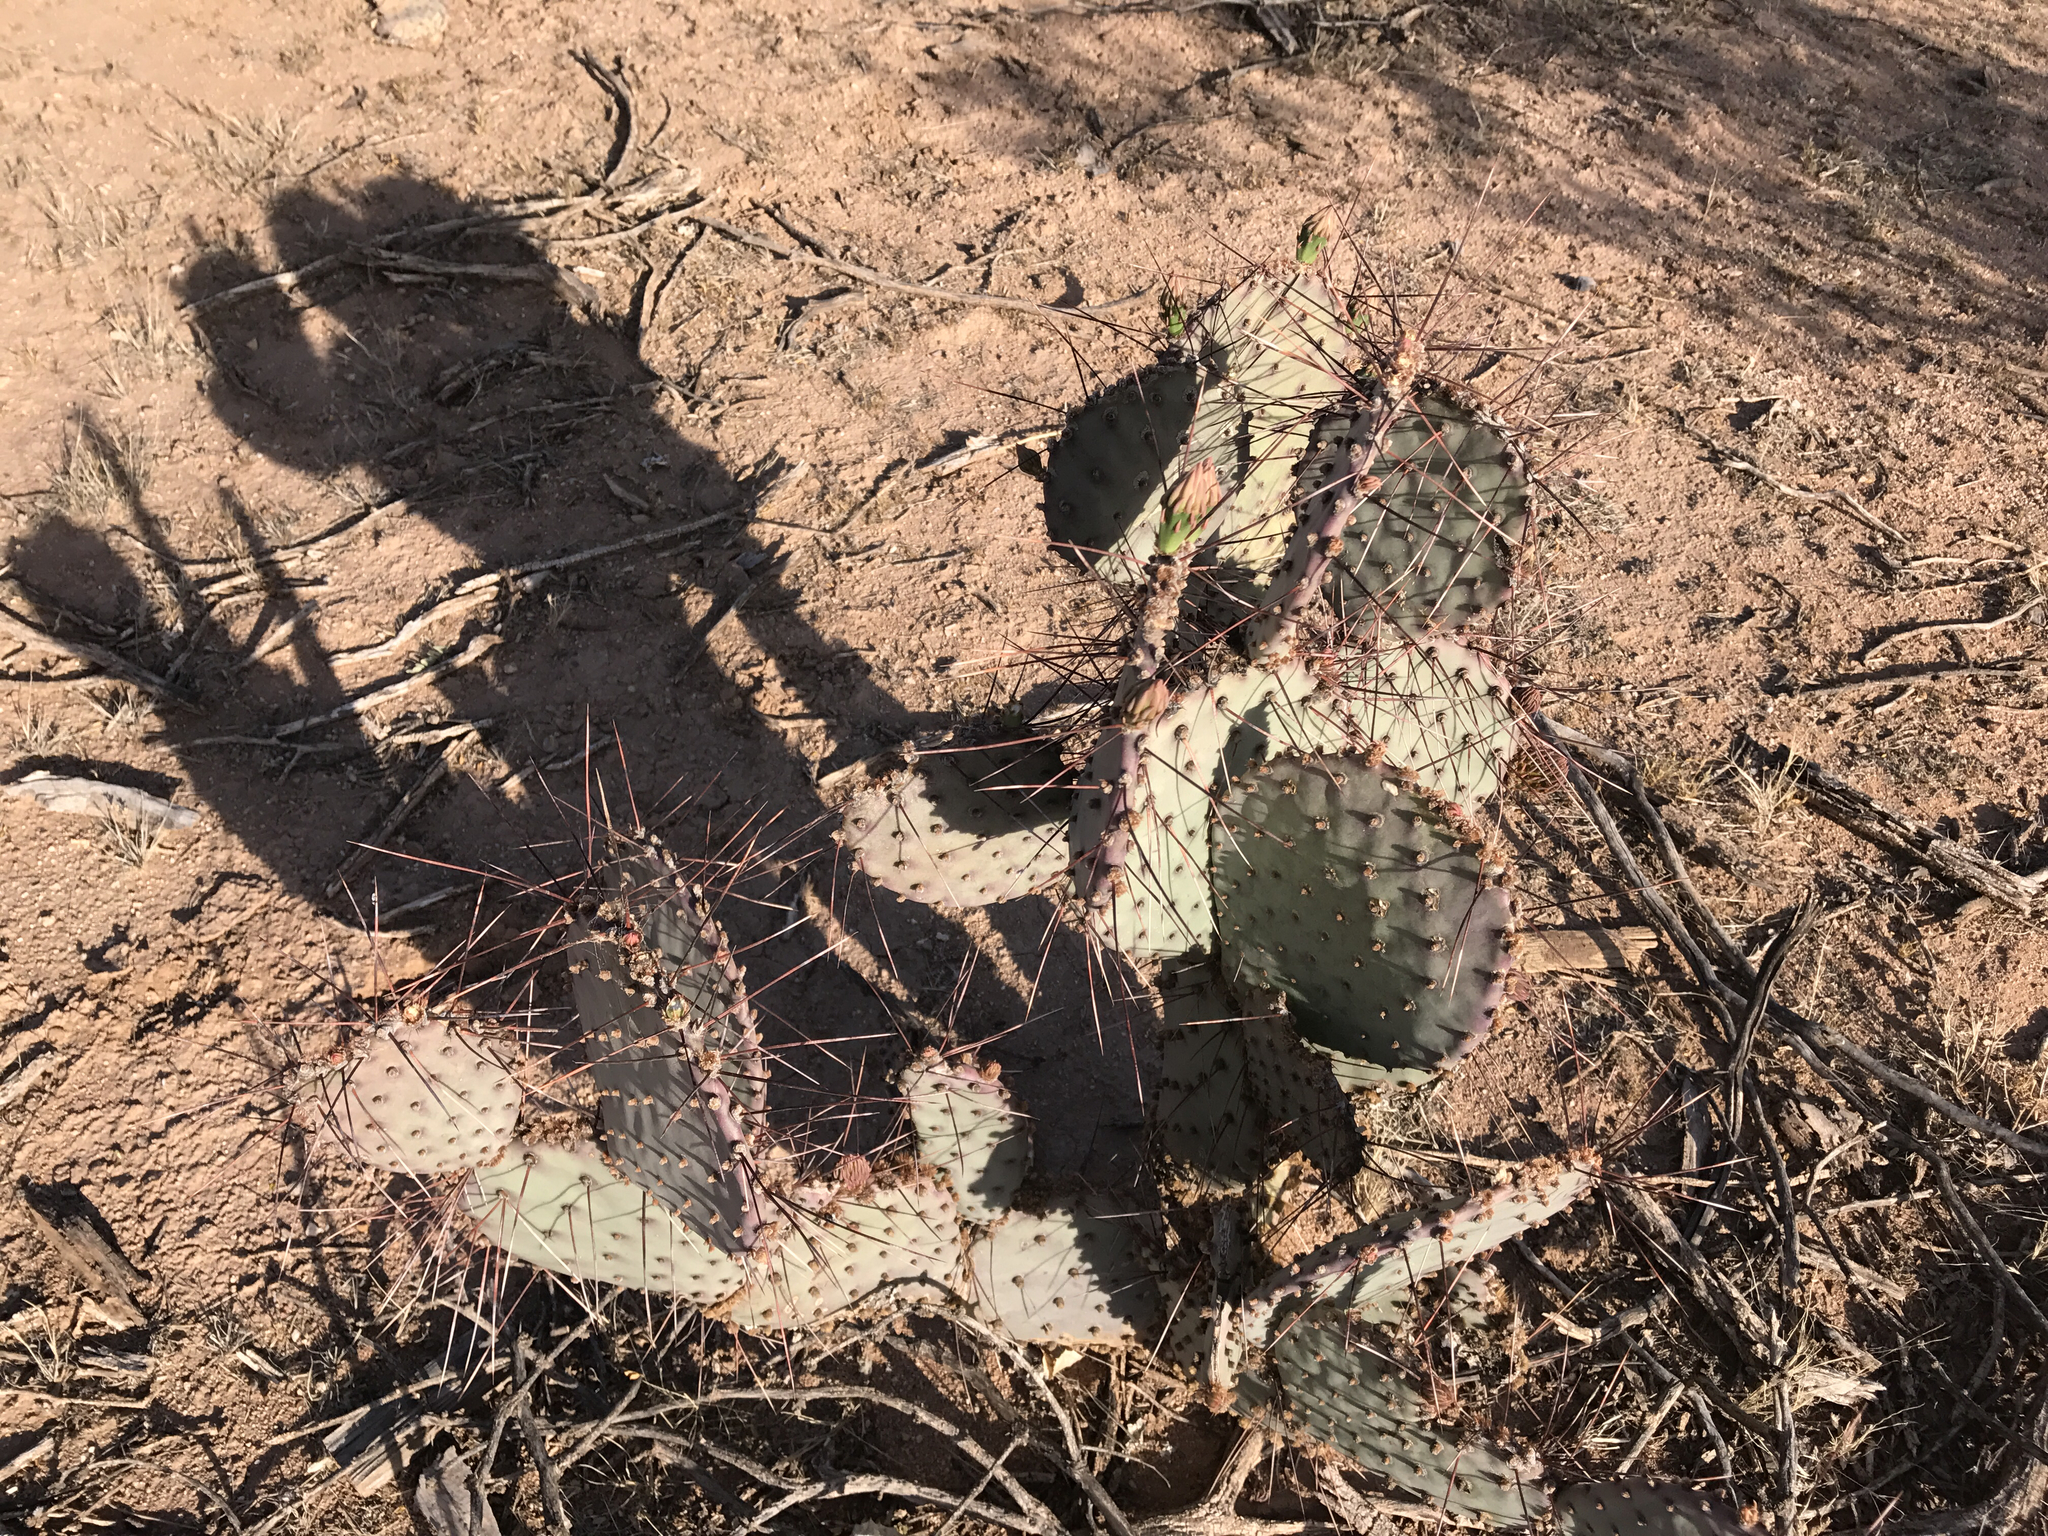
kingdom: Plantae
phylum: Tracheophyta
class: Magnoliopsida
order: Caryophyllales
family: Cactaceae
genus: Opuntia
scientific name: Opuntia macrocentra
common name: Purple prickly-pear
